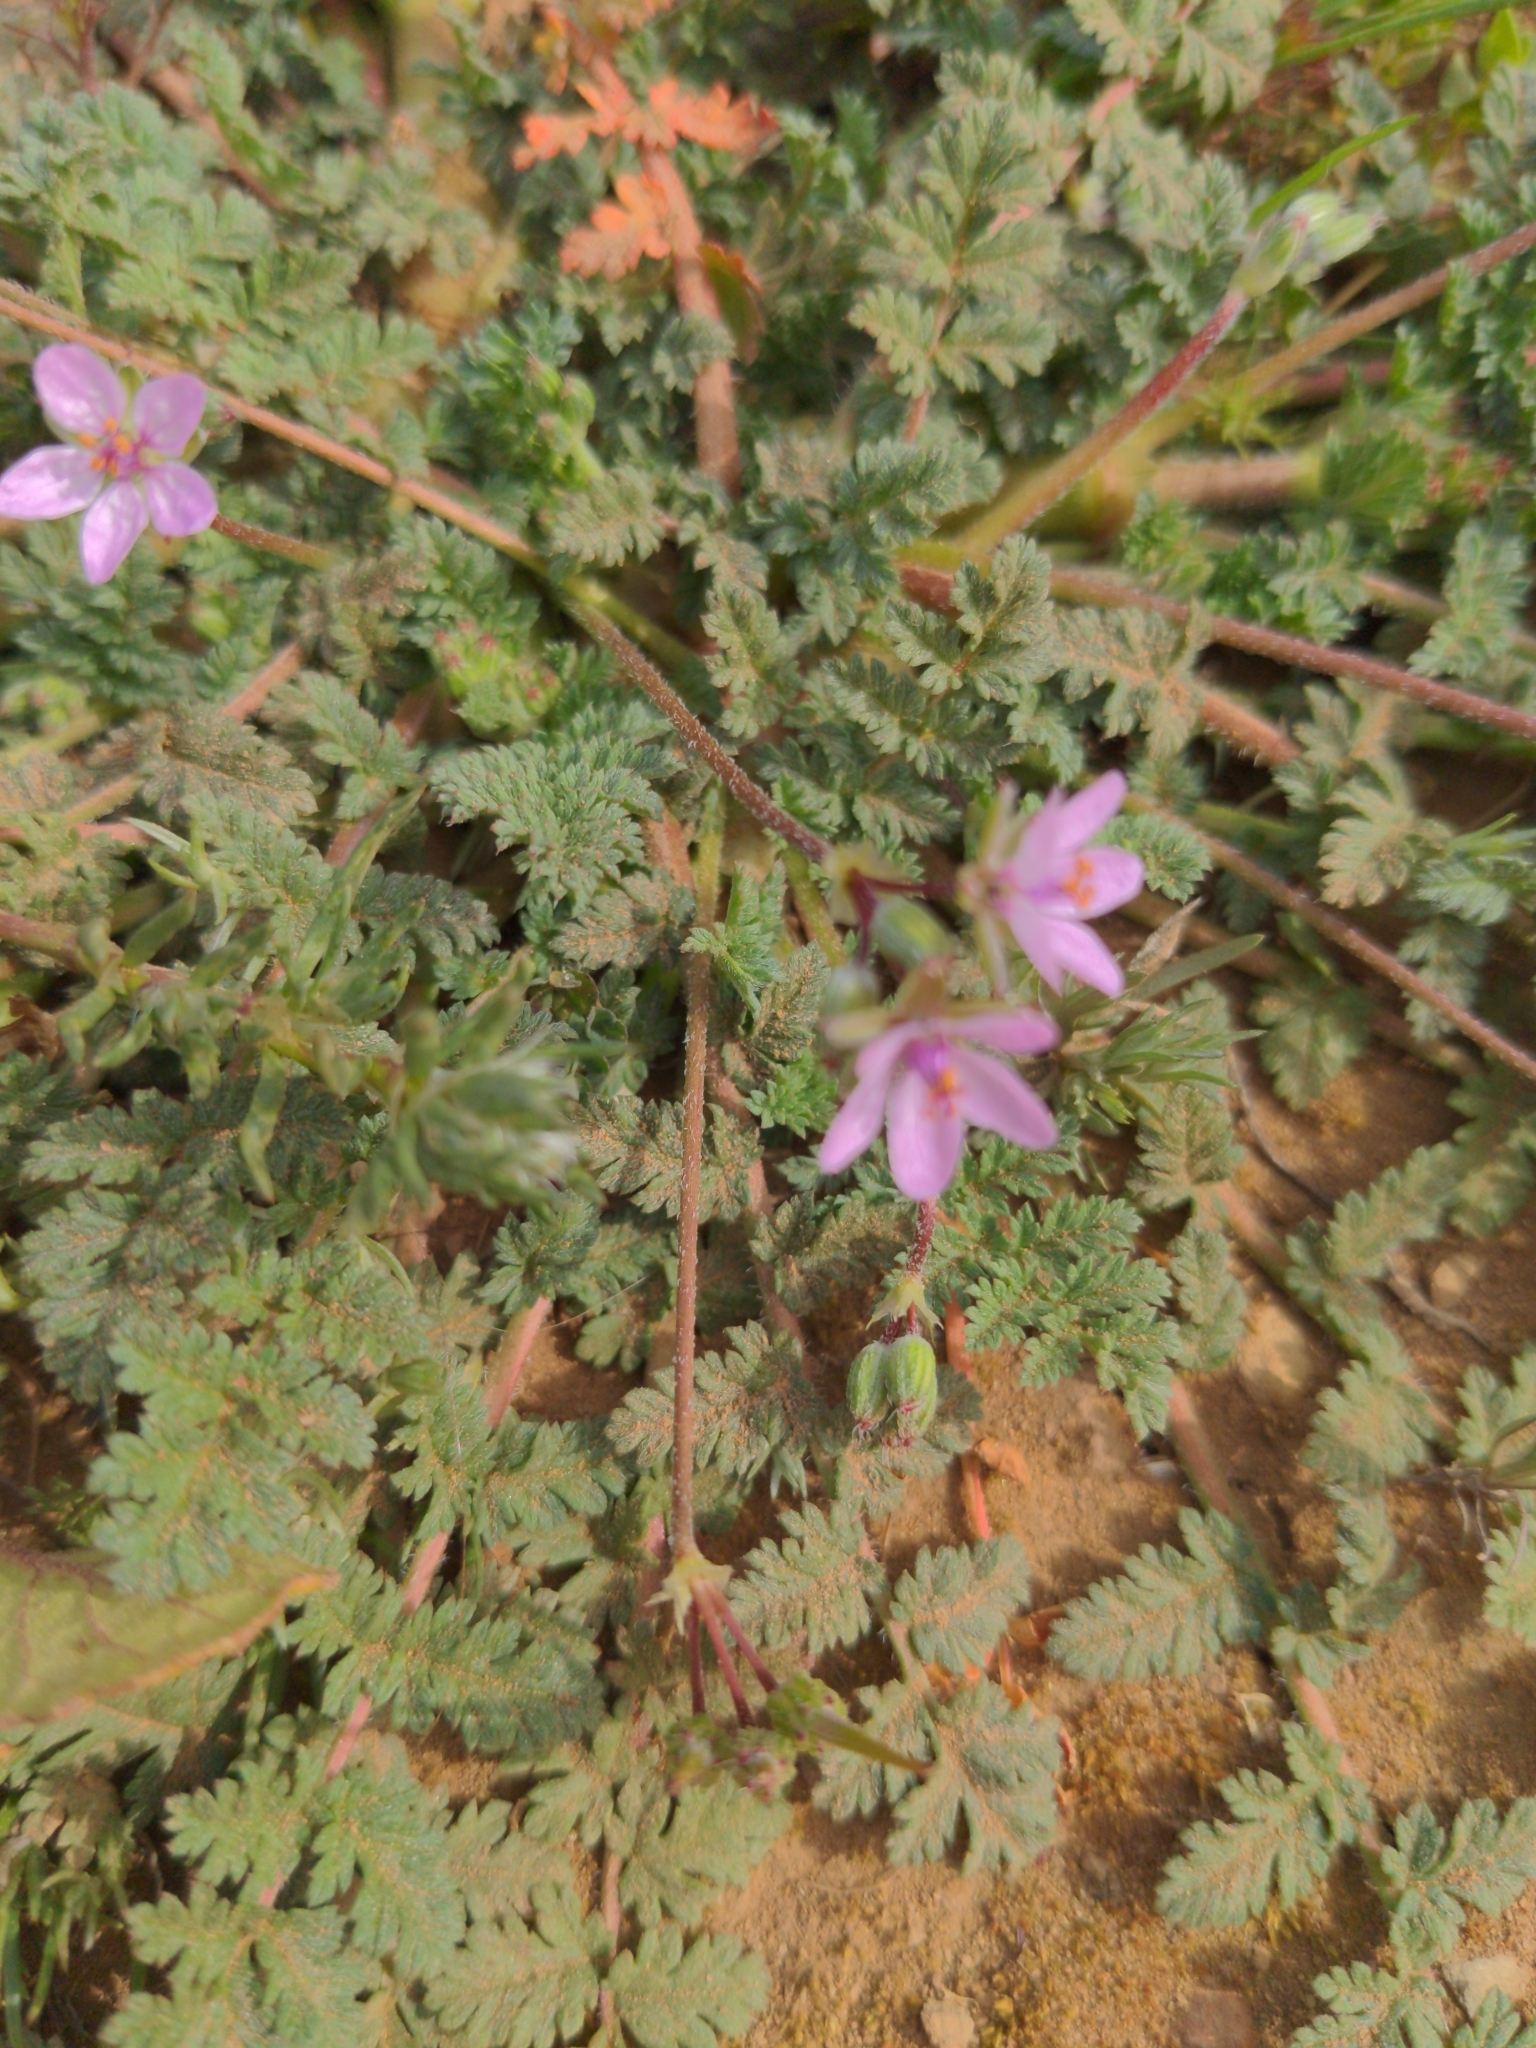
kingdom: Plantae
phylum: Tracheophyta
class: Magnoliopsida
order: Geraniales
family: Geraniaceae
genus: Erodium
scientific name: Erodium cicutarium
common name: Common stork's-bill
